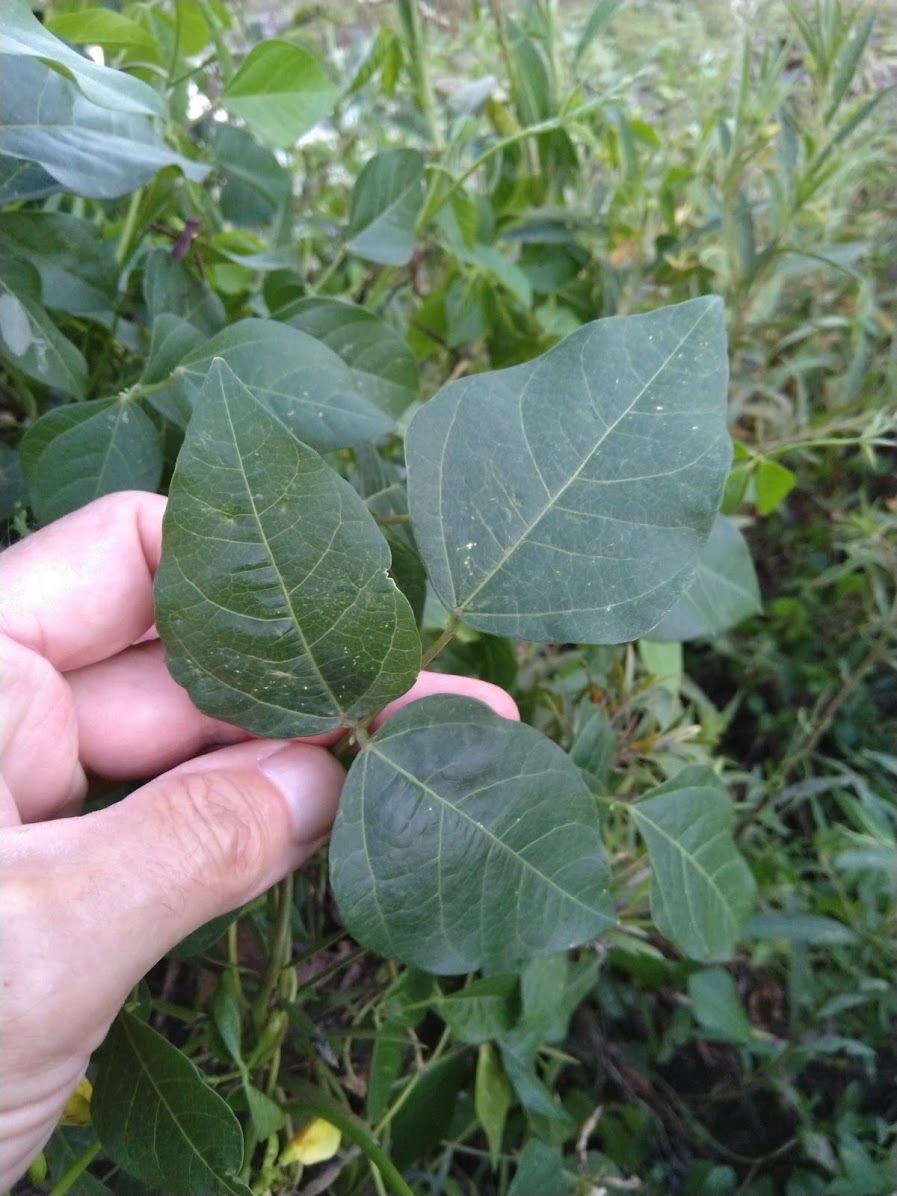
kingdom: Plantae
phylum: Tracheophyta
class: Magnoliopsida
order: Fabales
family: Fabaceae
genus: Vigna
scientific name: Vigna luteola
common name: Hairypod cowpea
